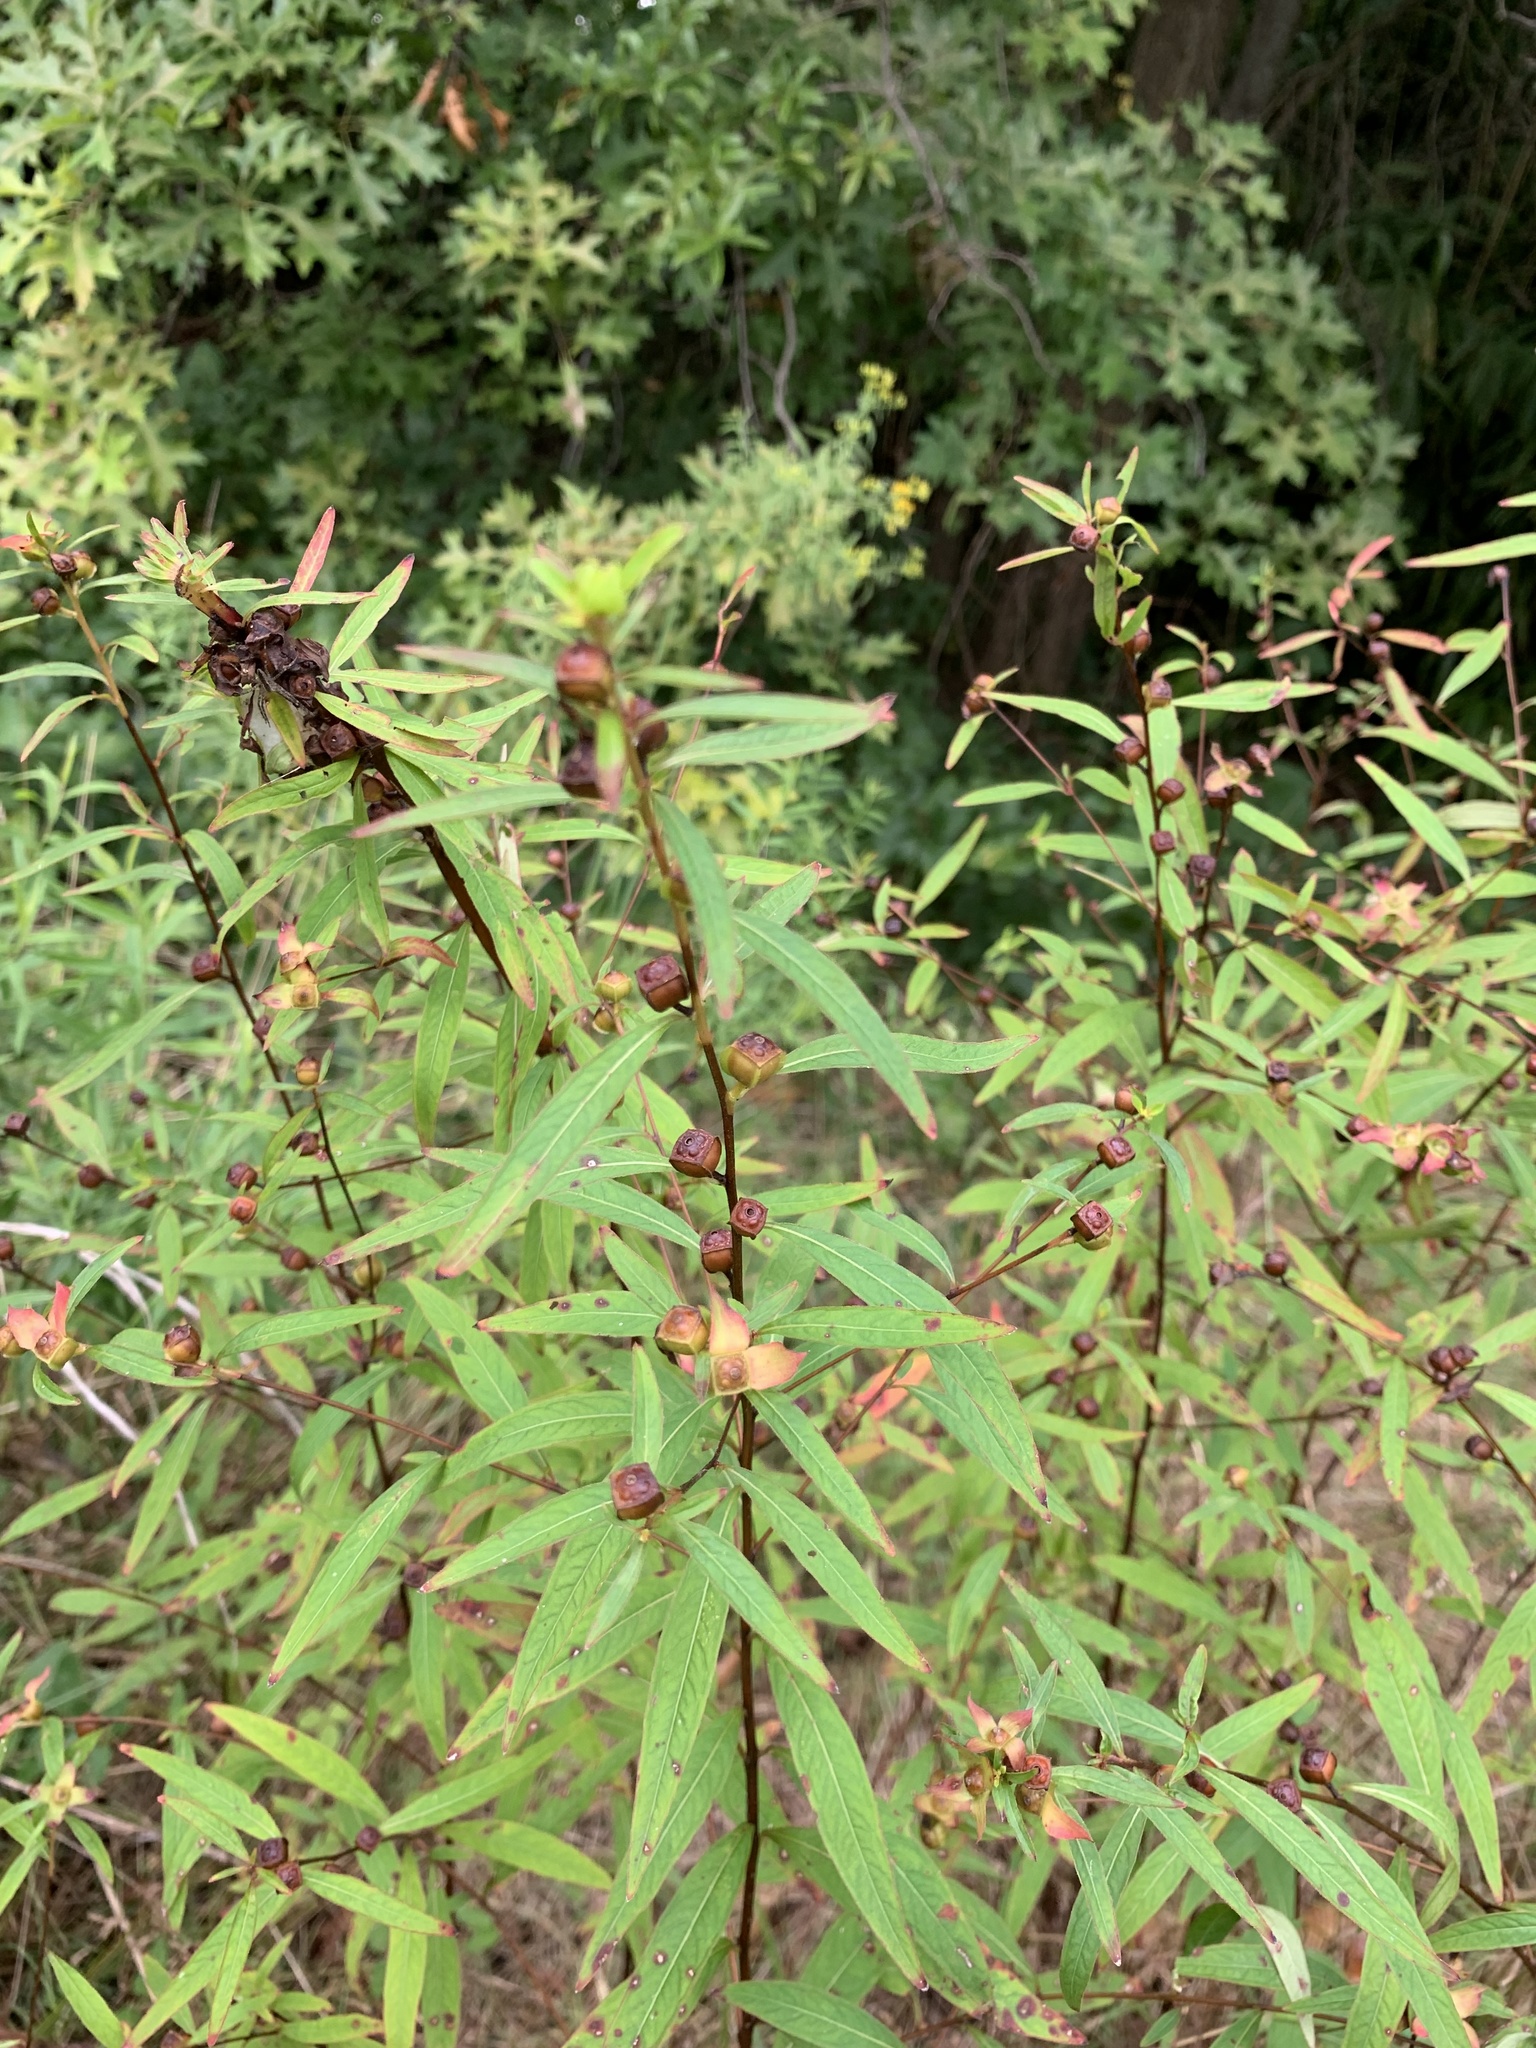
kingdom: Plantae
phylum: Tracheophyta
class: Magnoliopsida
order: Myrtales
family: Onagraceae
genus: Ludwigia
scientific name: Ludwigia alternifolia
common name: Rattlebox
